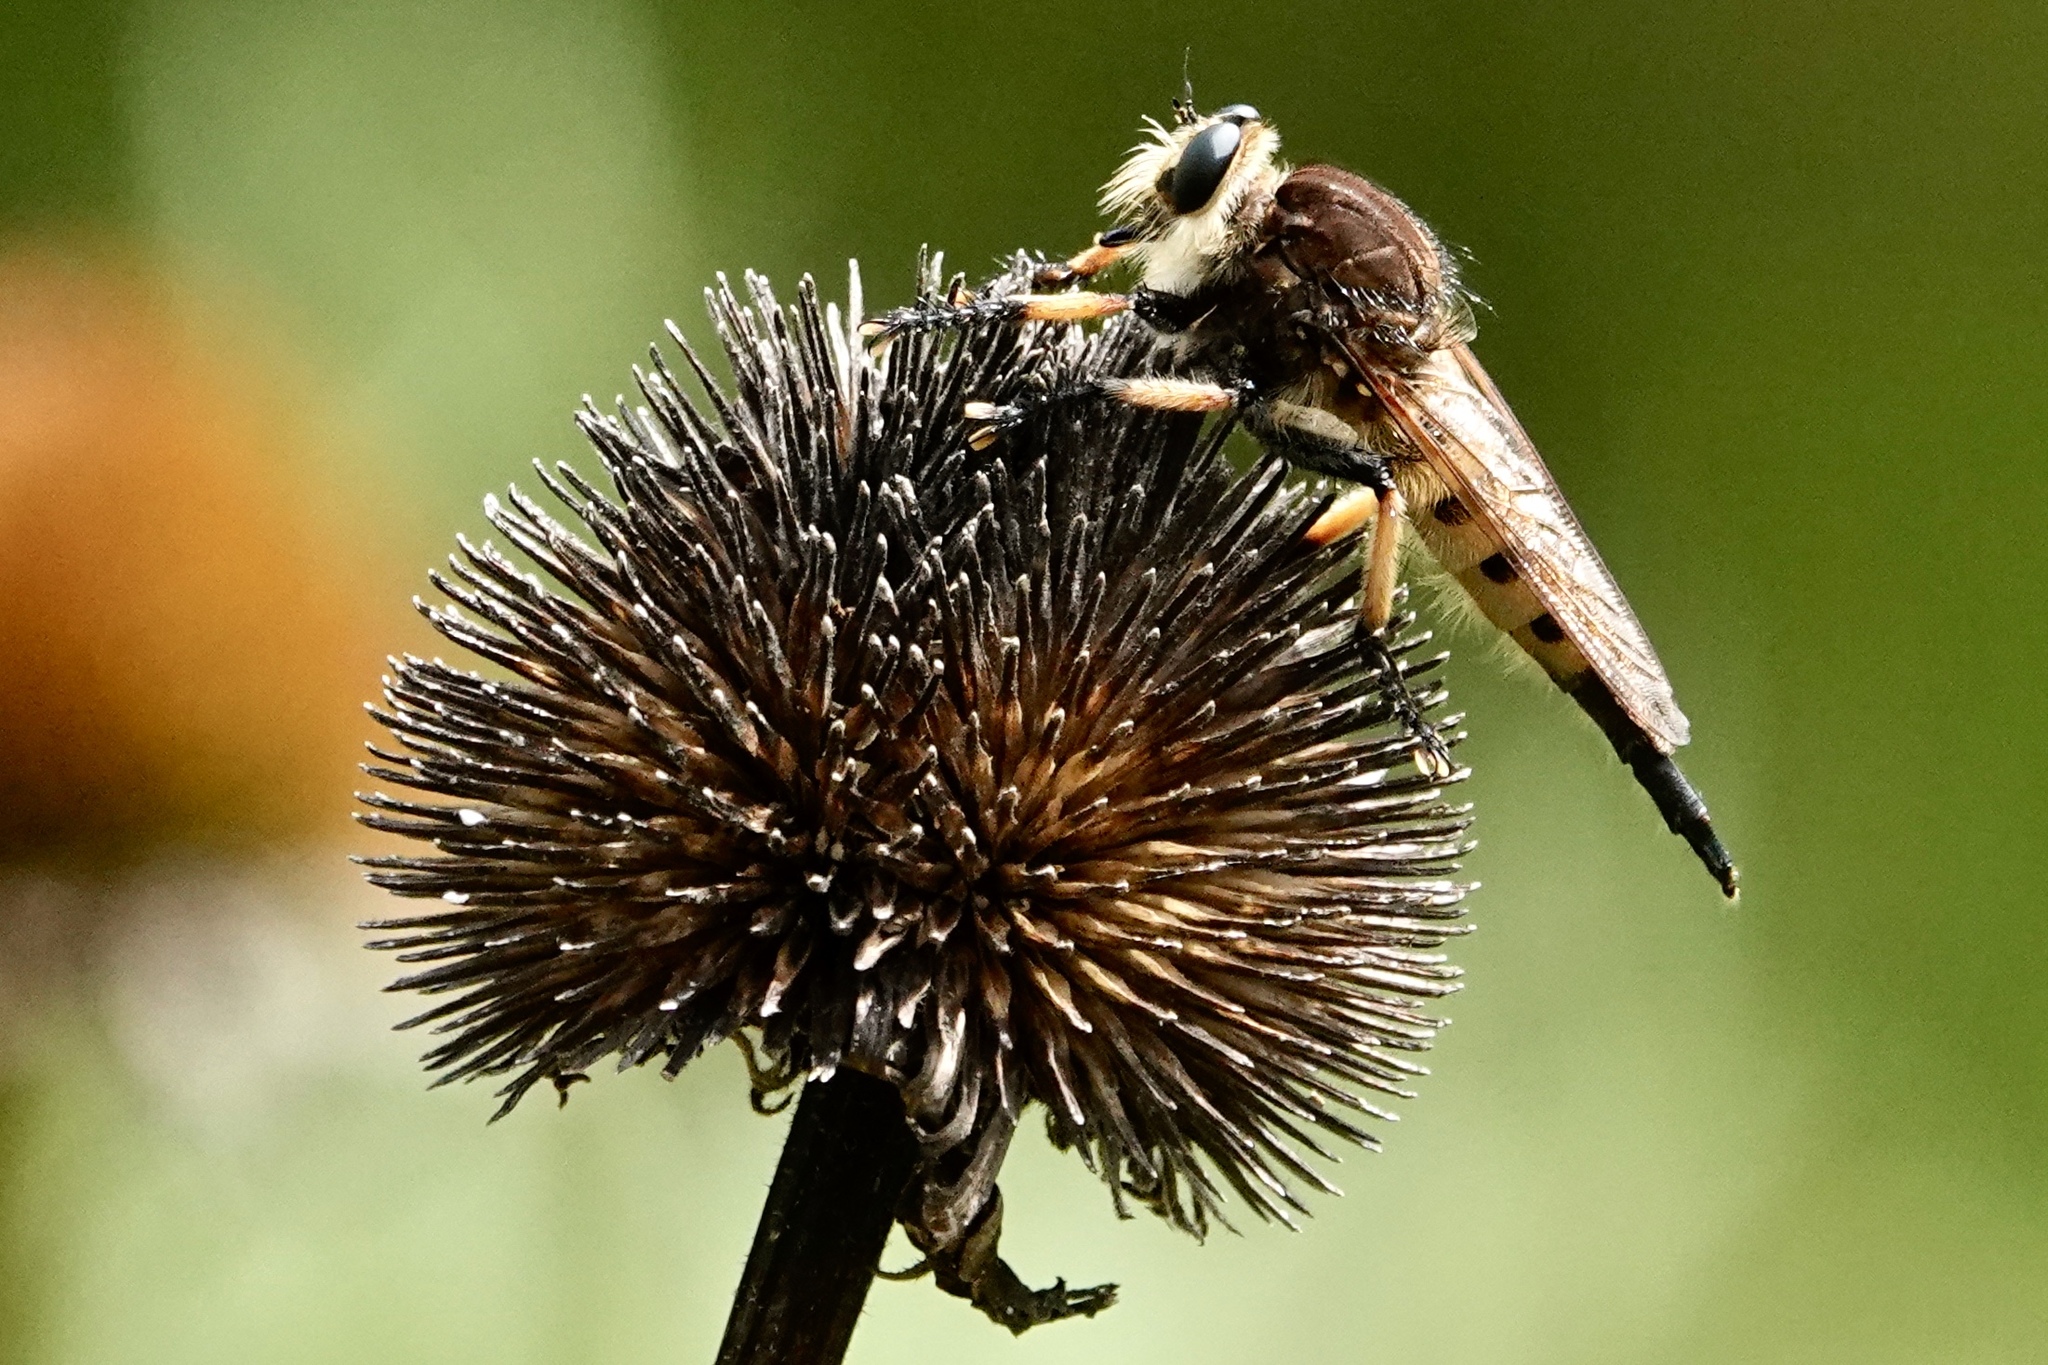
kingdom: Animalia
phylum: Arthropoda
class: Insecta
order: Diptera
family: Asilidae
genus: Promachus
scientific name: Promachus rufipes
